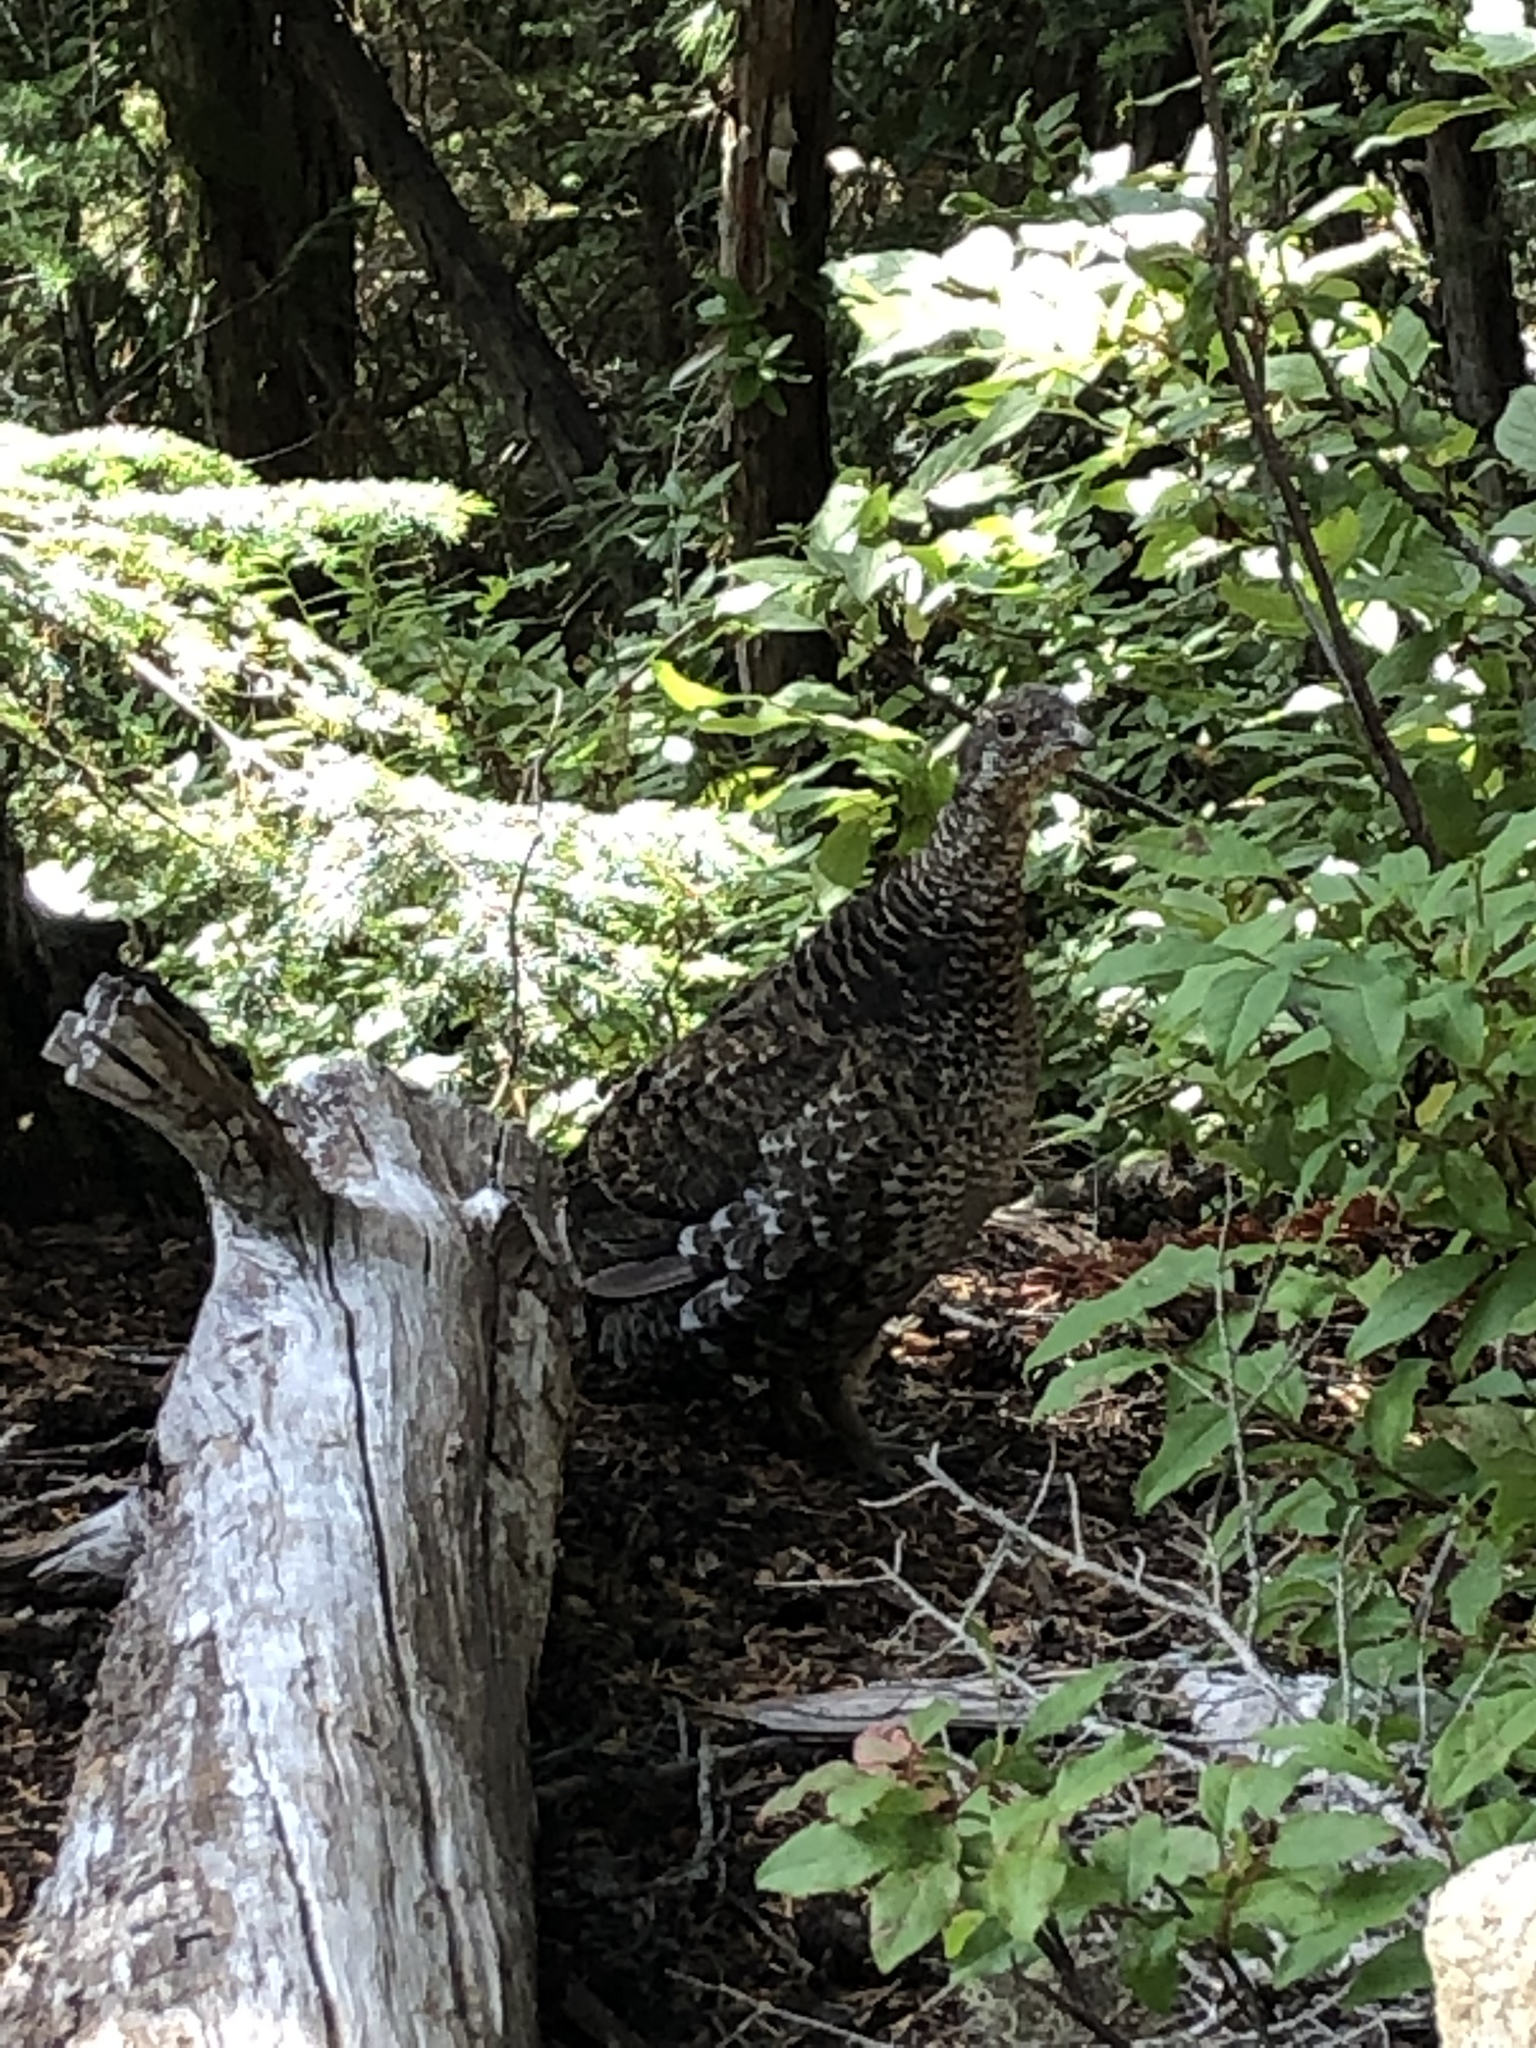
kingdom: Animalia
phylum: Chordata
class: Aves
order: Galliformes
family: Phasianidae
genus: Dendragapus
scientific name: Dendragapus fuliginosus
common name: Sooty grouse
